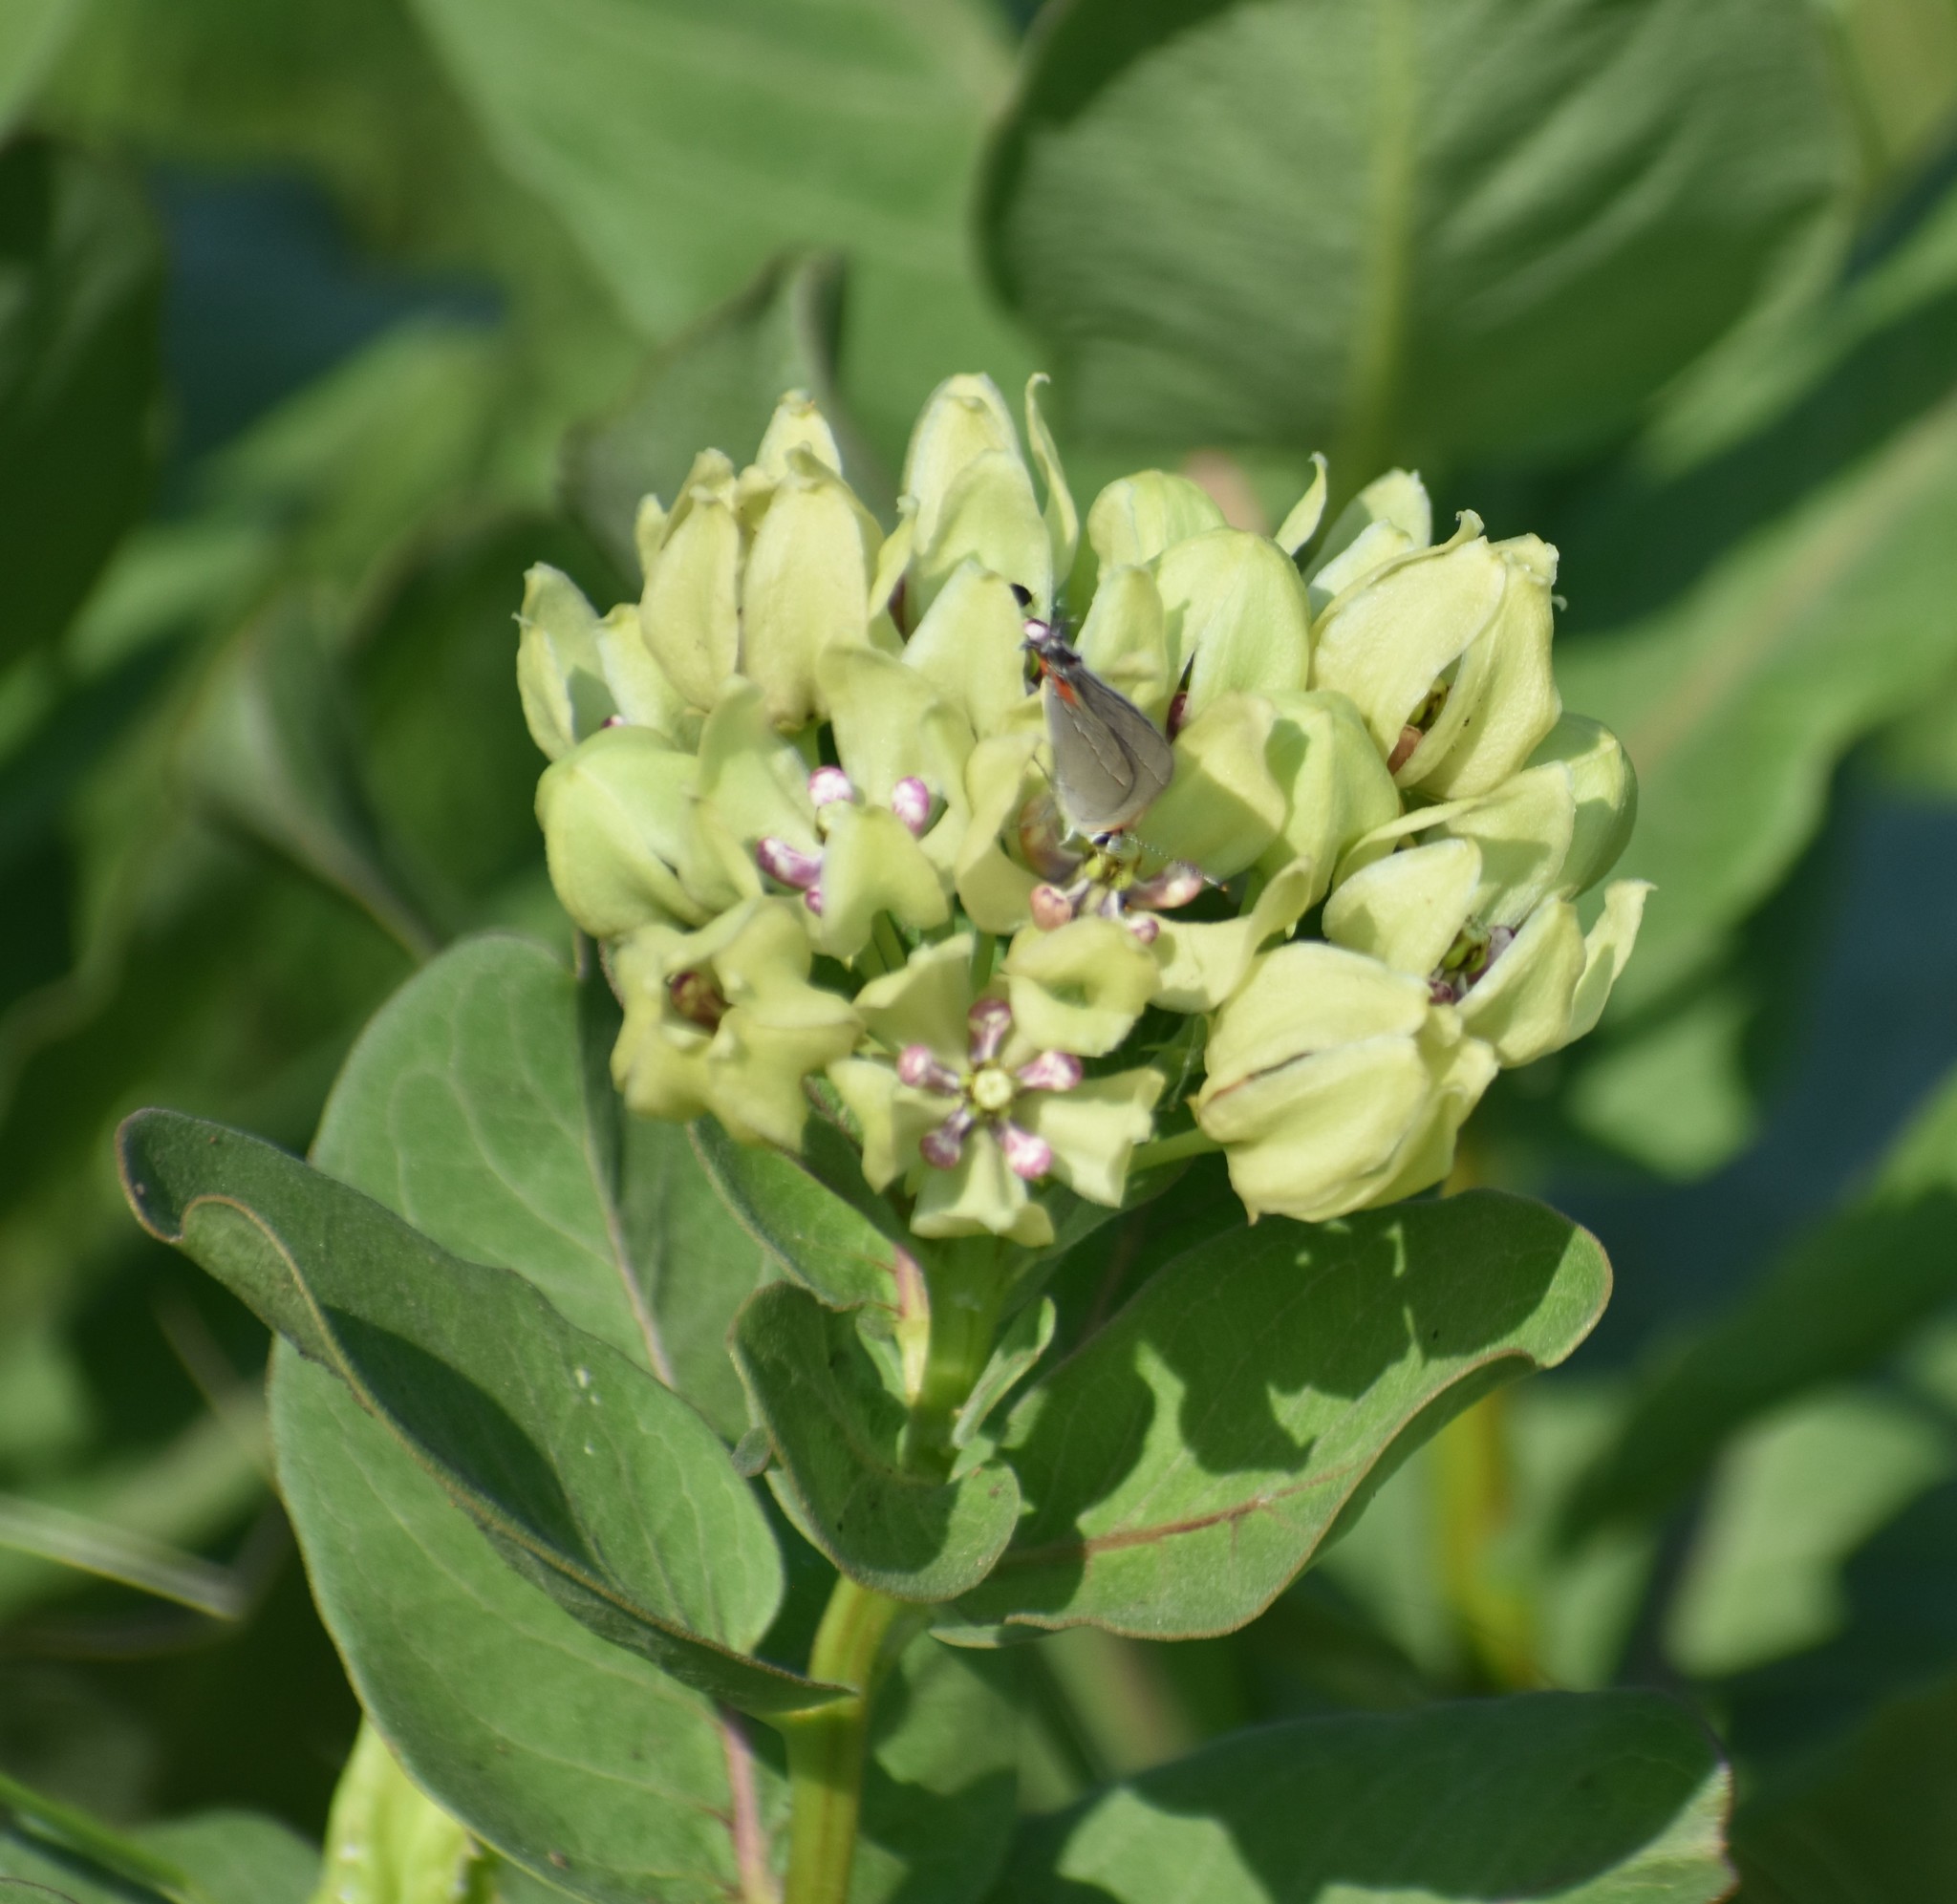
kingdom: Animalia
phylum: Arthropoda
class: Insecta
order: Lepidoptera
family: Lycaenidae
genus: Strymon
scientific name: Strymon melinus
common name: Gray hairstreak
